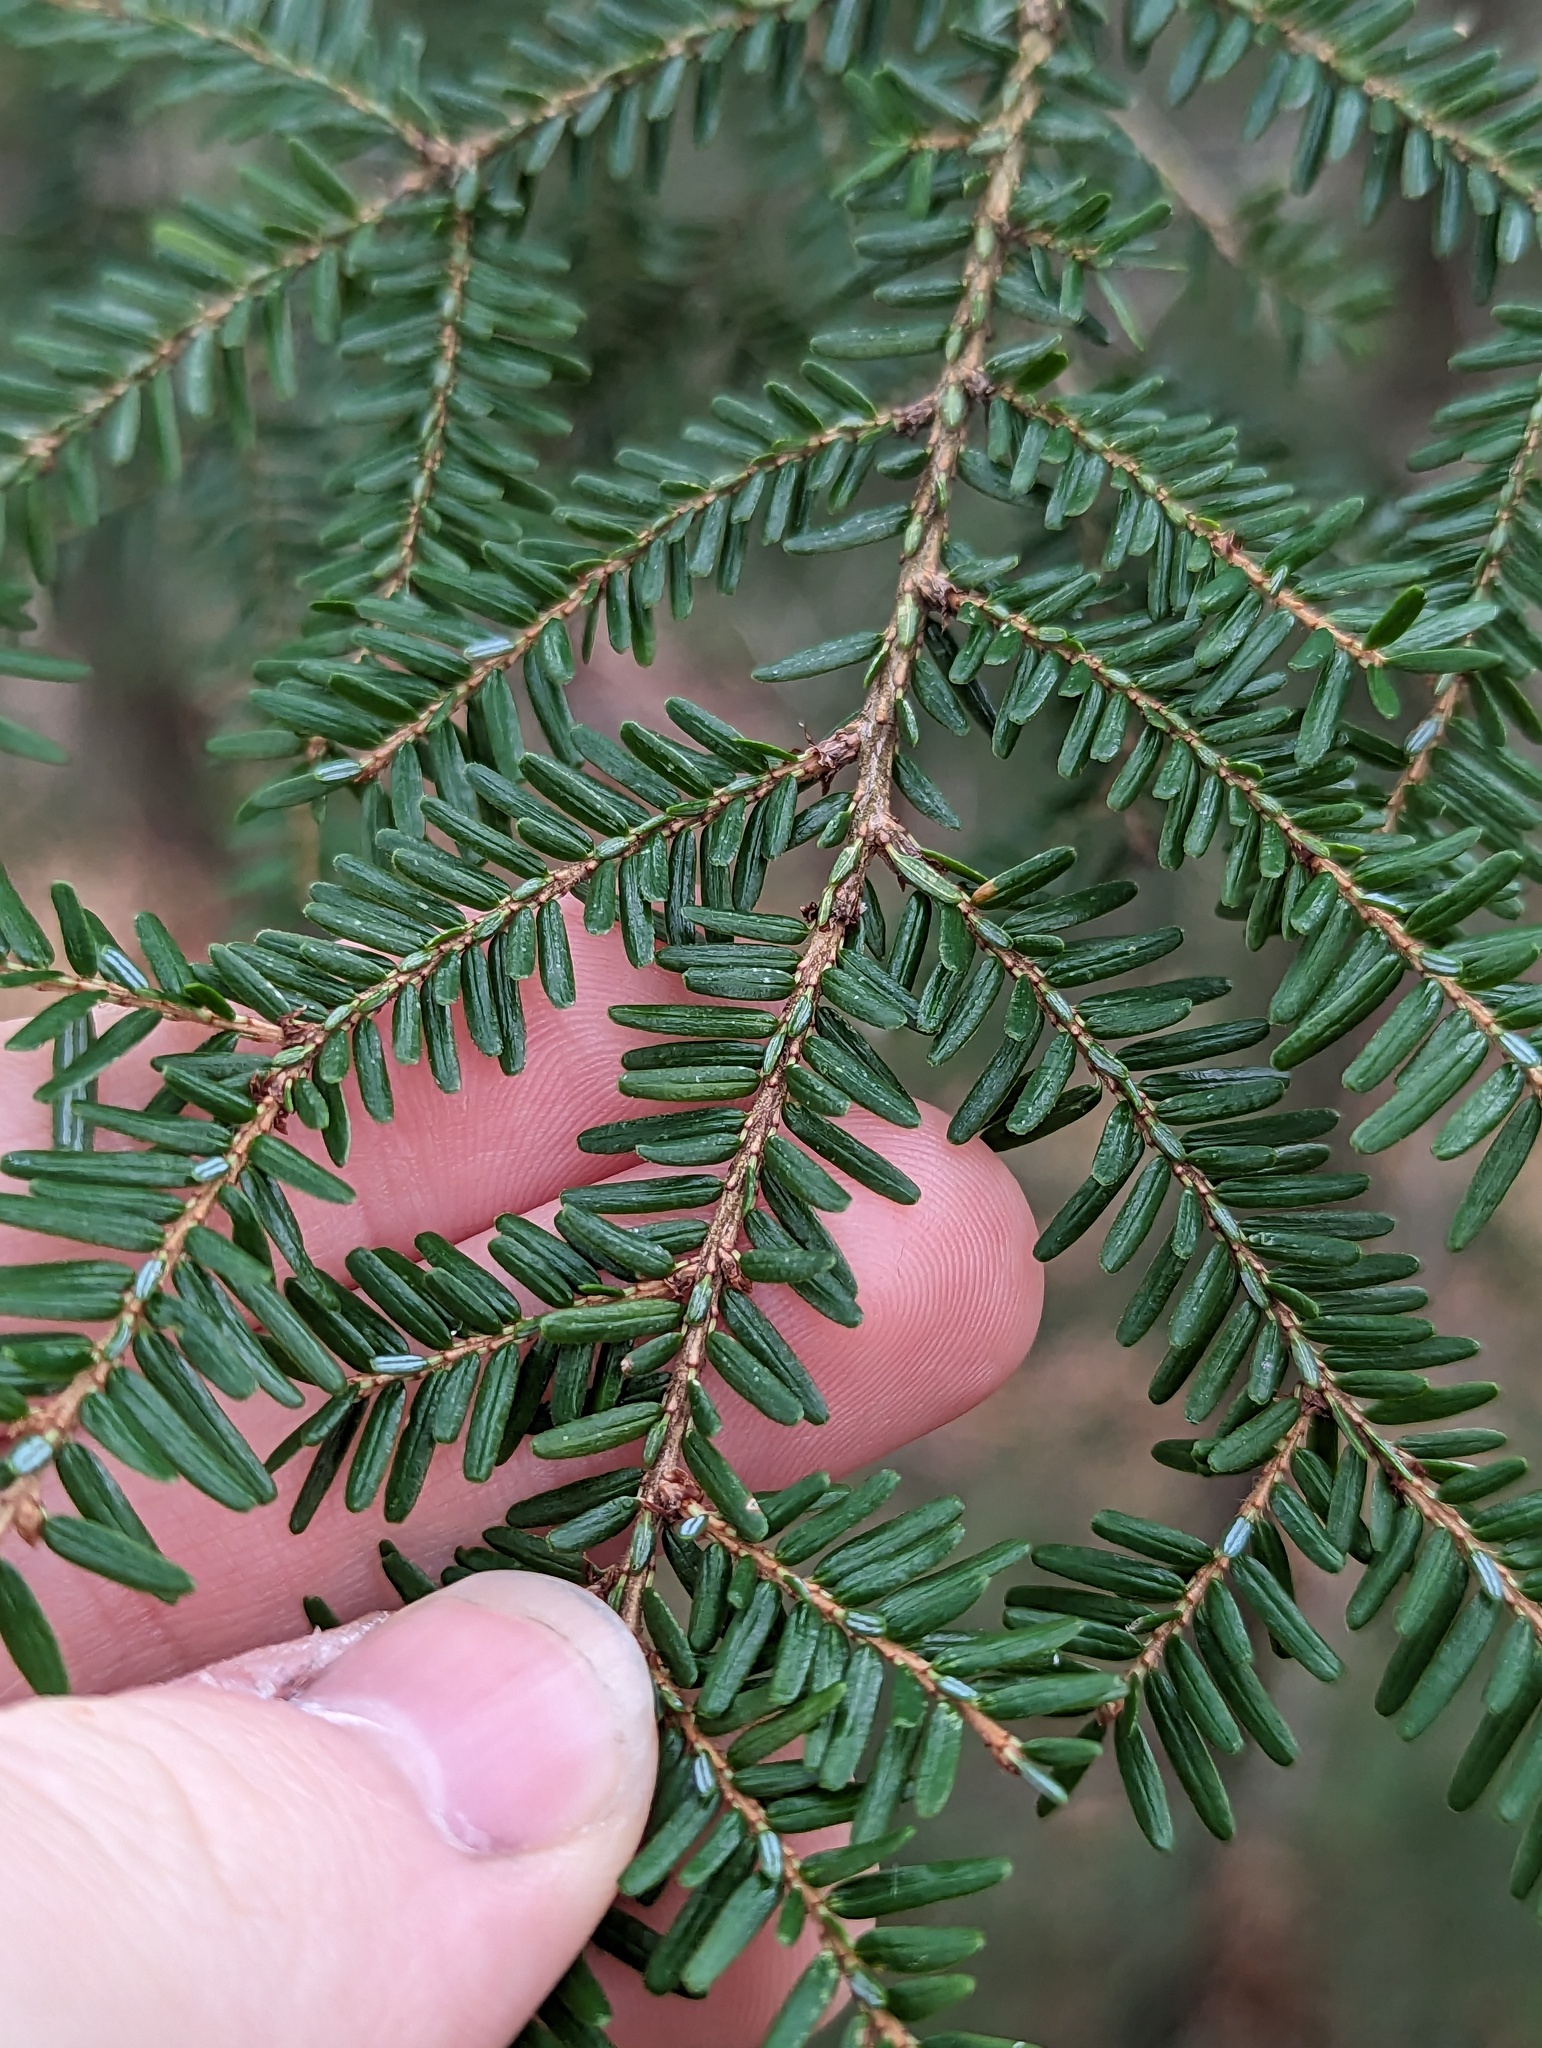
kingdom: Plantae
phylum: Tracheophyta
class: Pinopsida
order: Pinales
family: Pinaceae
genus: Tsuga
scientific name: Tsuga canadensis
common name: Eastern hemlock
